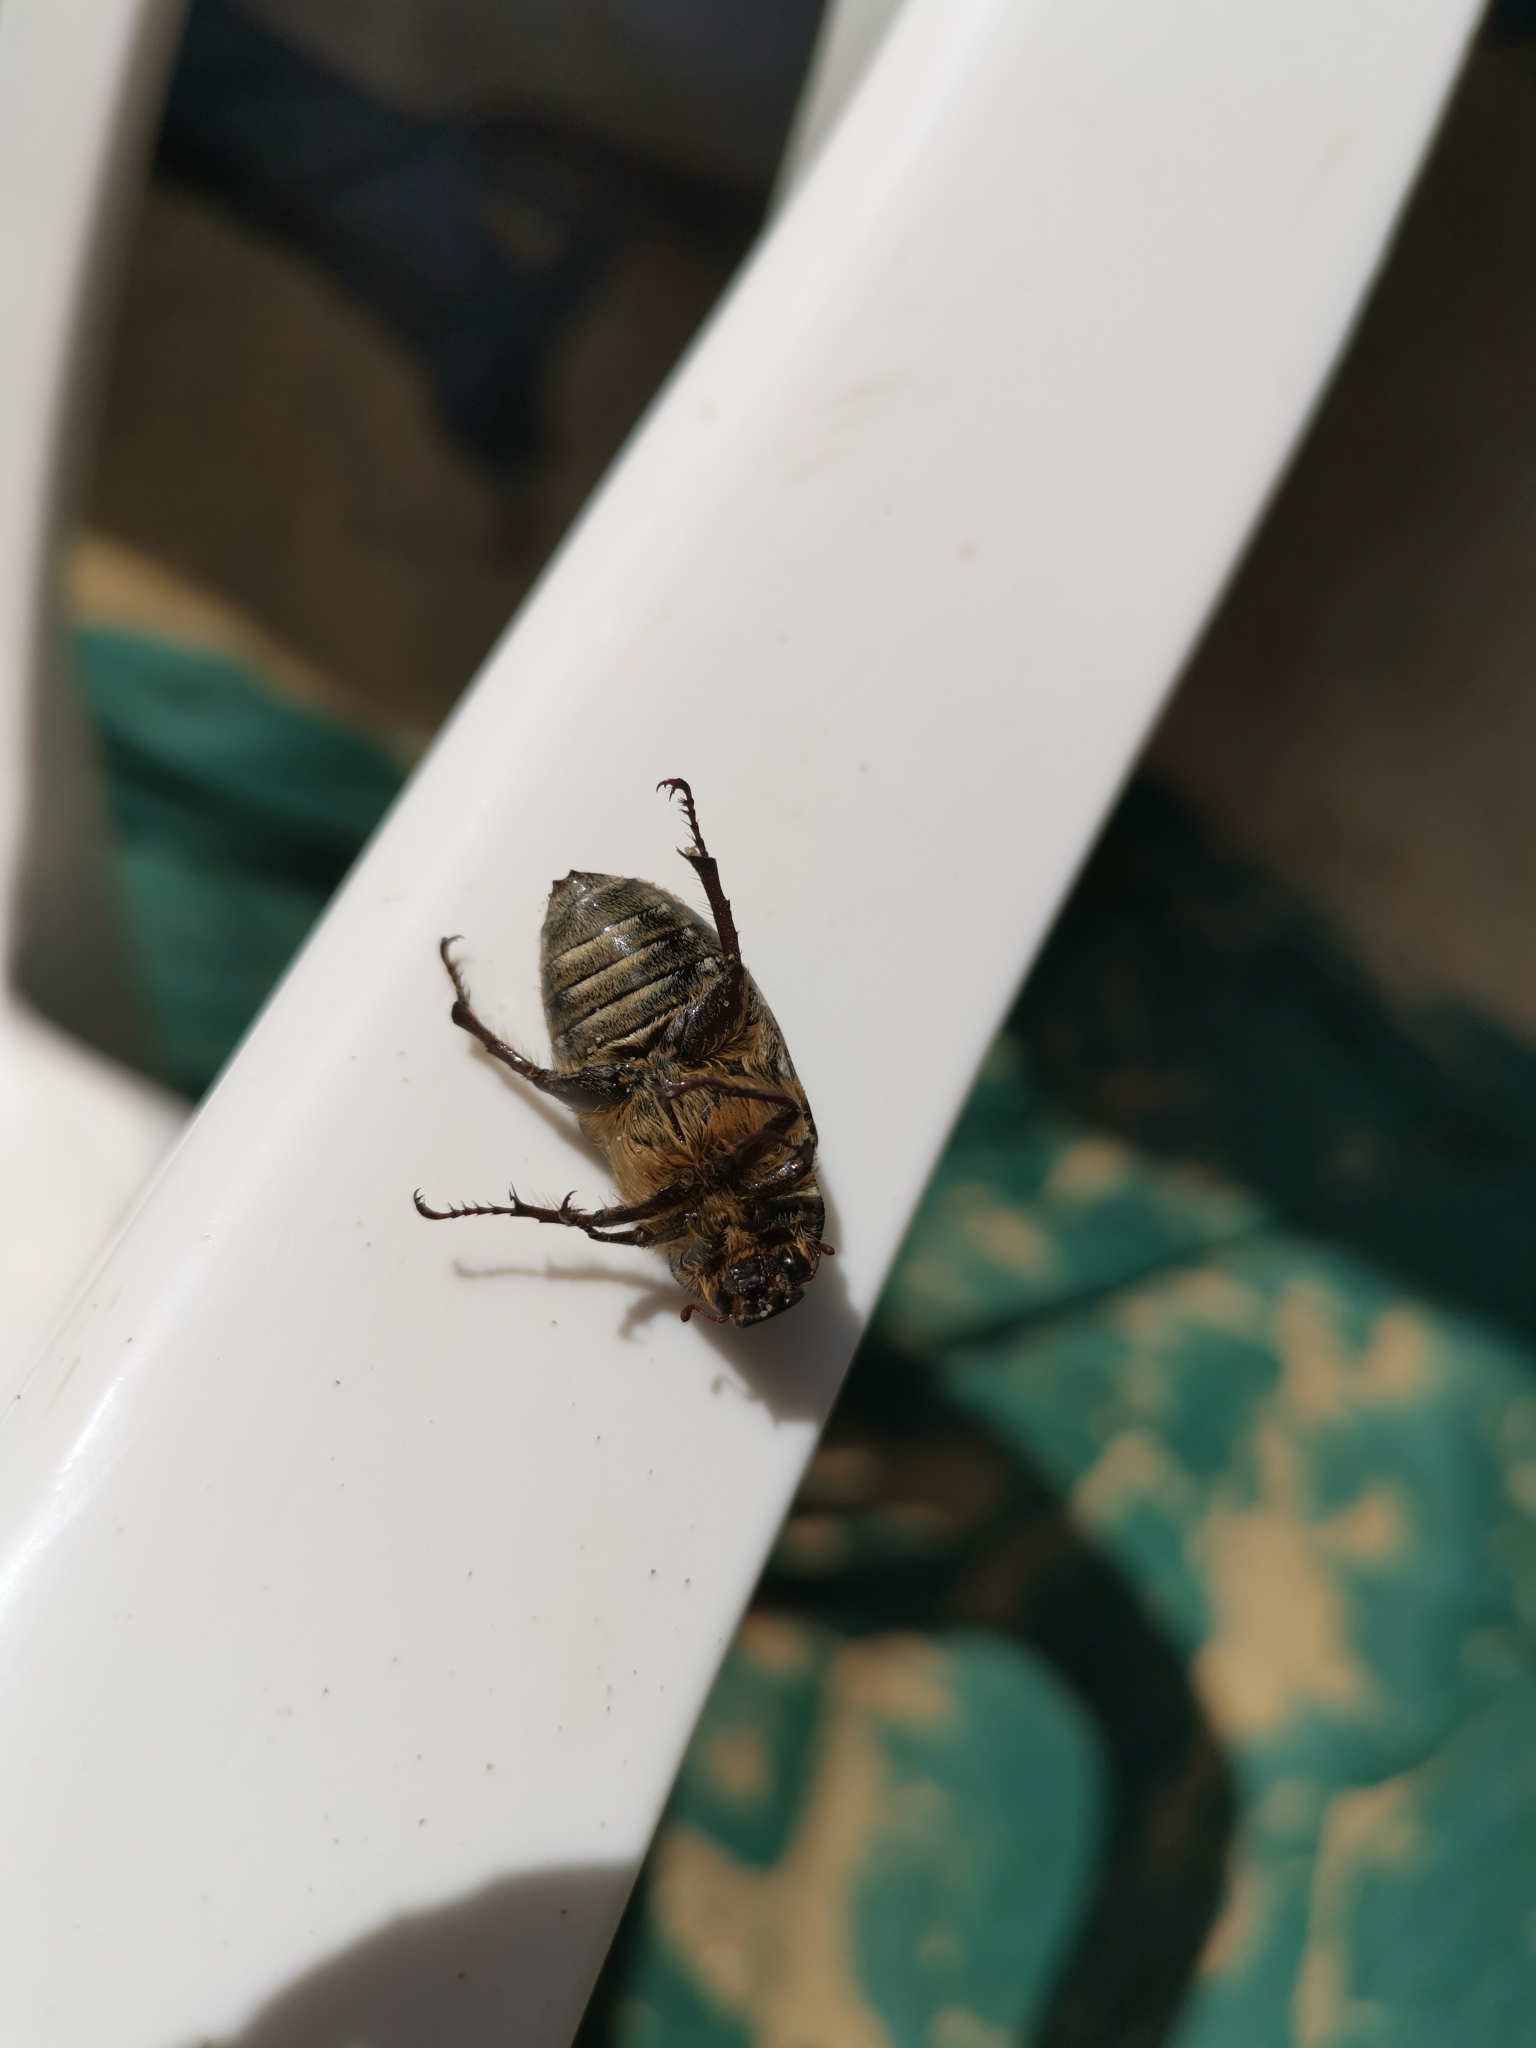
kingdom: Animalia
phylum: Arthropoda
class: Insecta
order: Coleoptera
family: Scarabaeidae
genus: Anoxia
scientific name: Anoxia matutinalis
